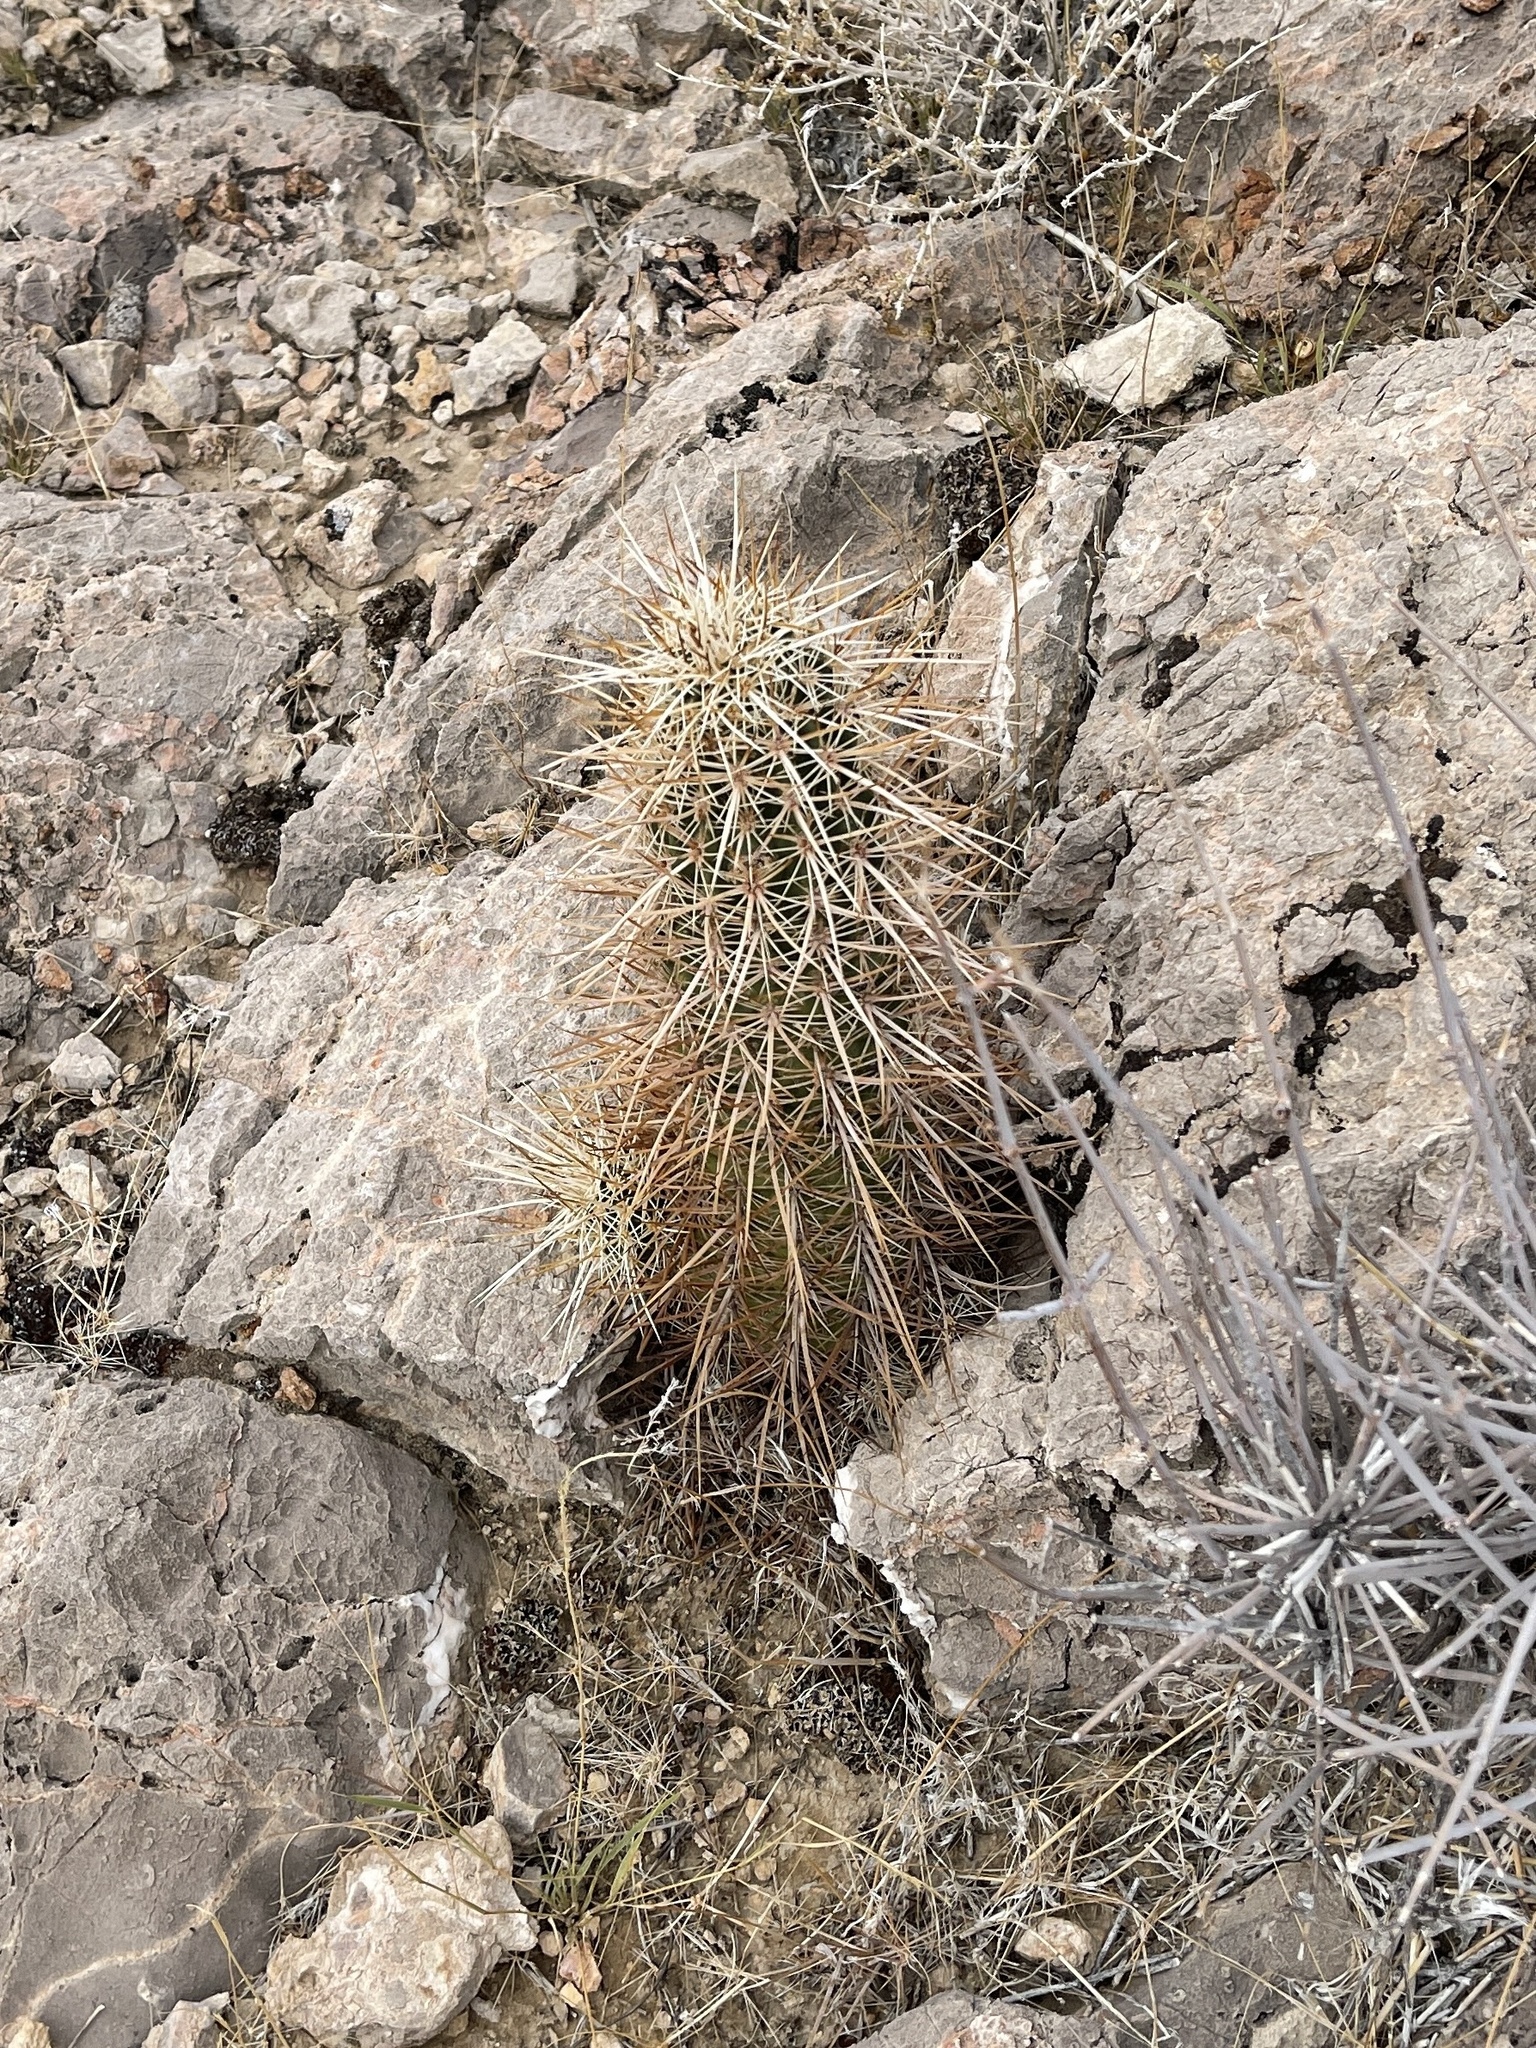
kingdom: Plantae
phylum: Tracheophyta
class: Magnoliopsida
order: Caryophyllales
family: Cactaceae
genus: Echinocereus
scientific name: Echinocereus engelmannii
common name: Engelmann's hedgehog cactus
